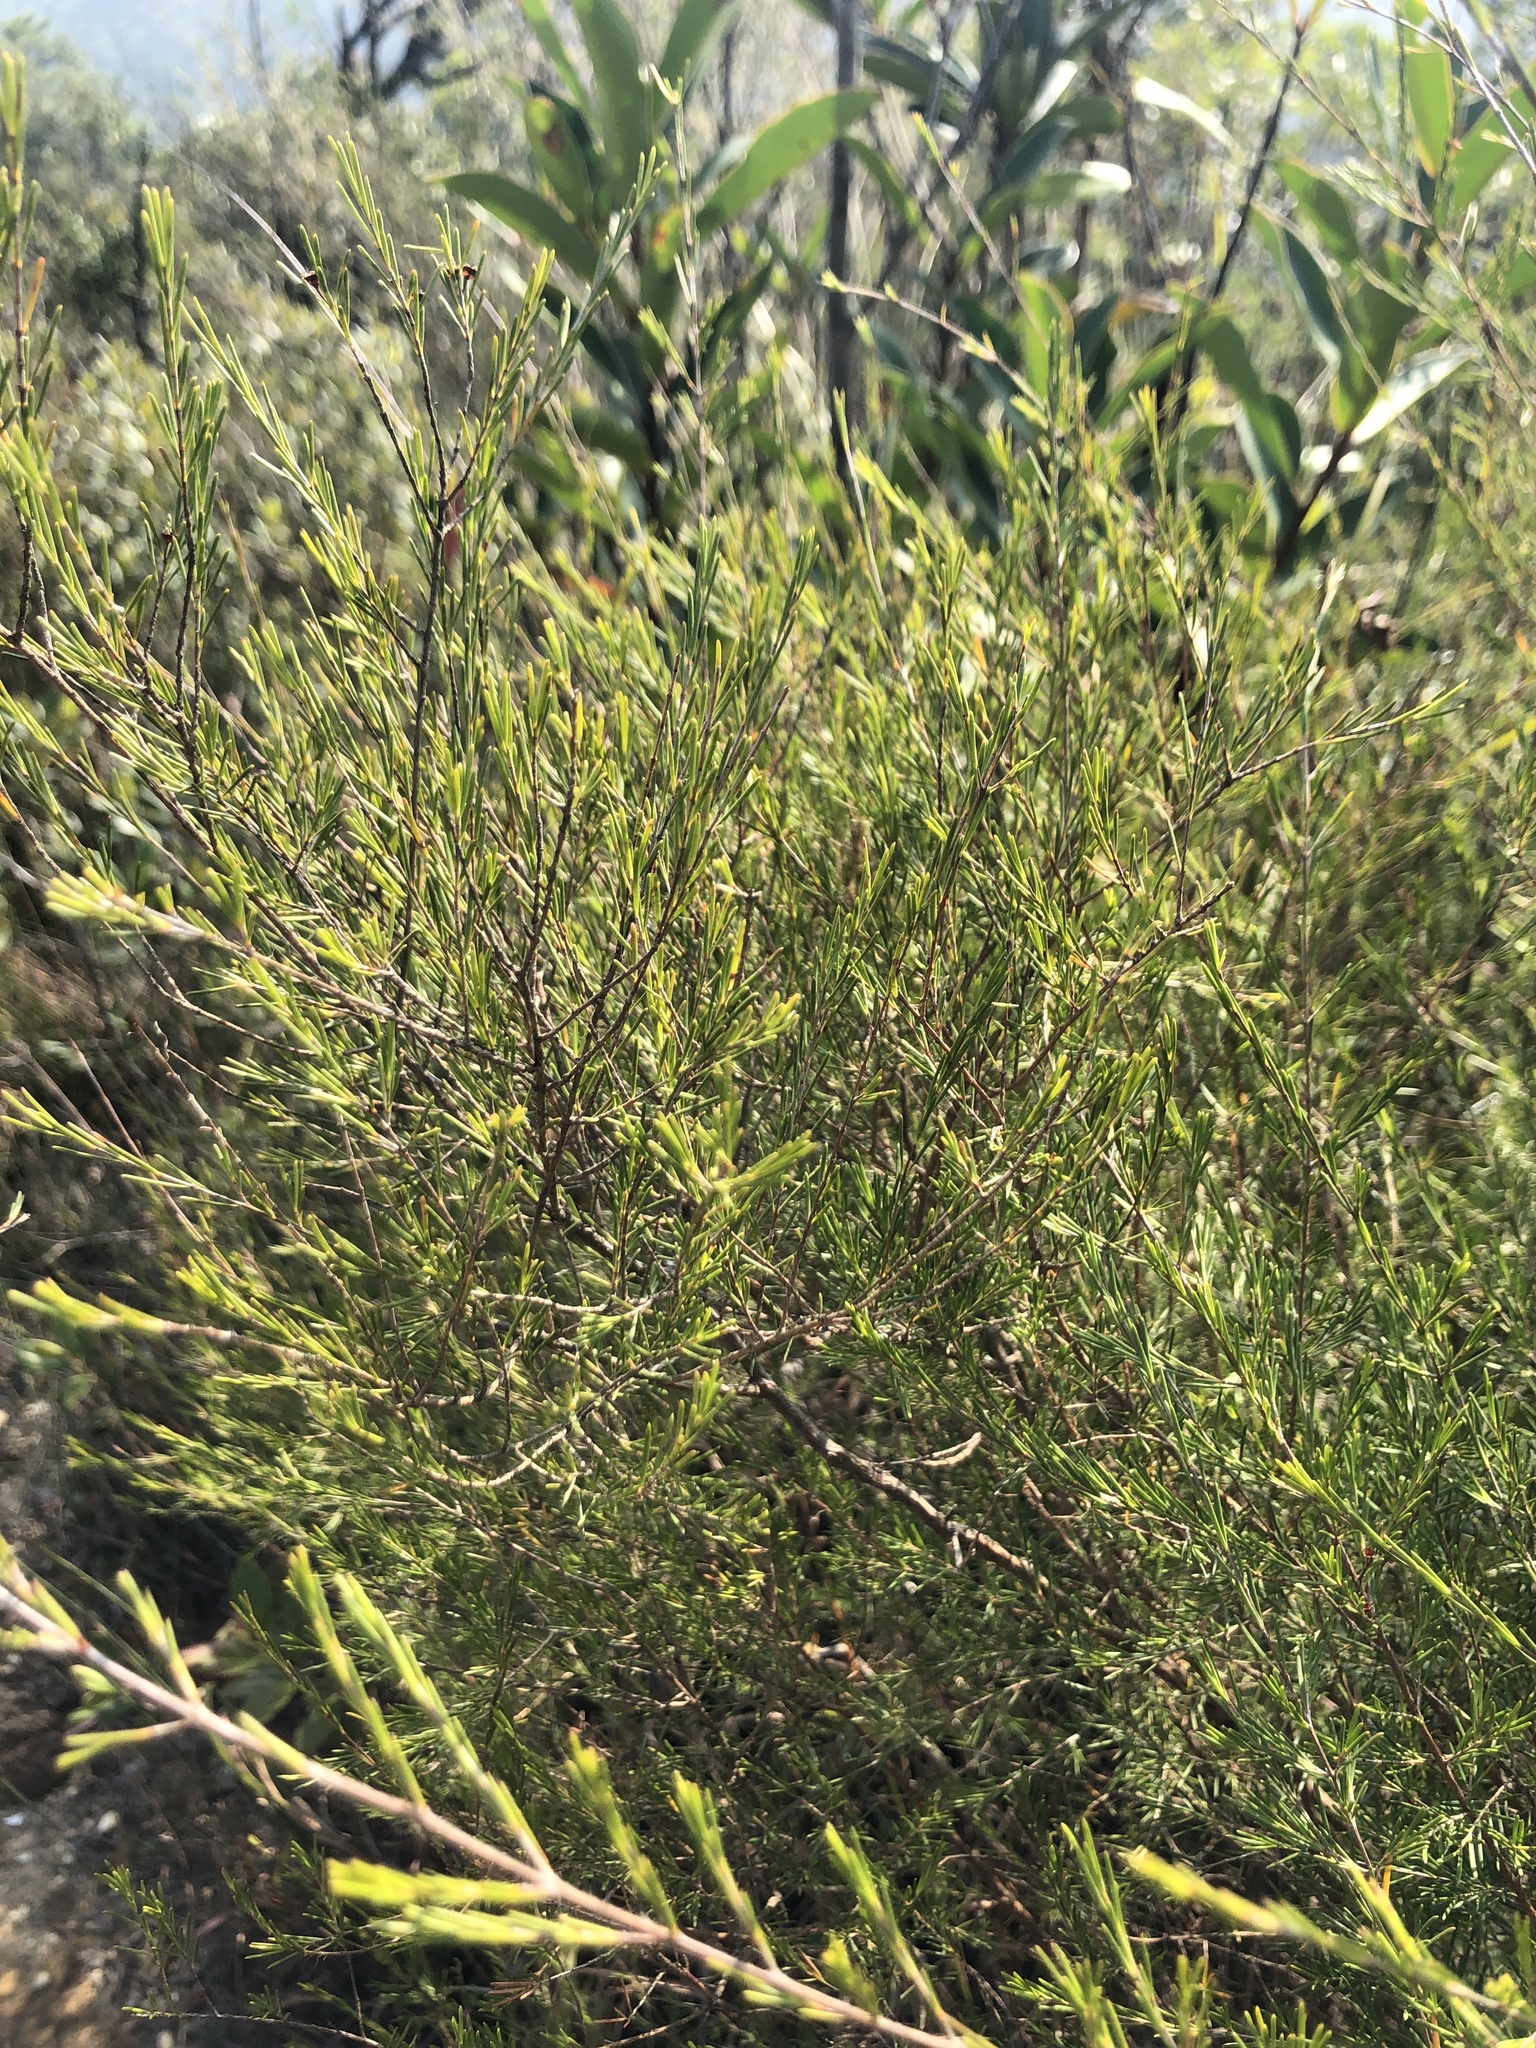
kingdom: Plantae
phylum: Tracheophyta
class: Magnoliopsida
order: Myrtales
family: Myrtaceae
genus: Baeckea
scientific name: Baeckea frutescens
